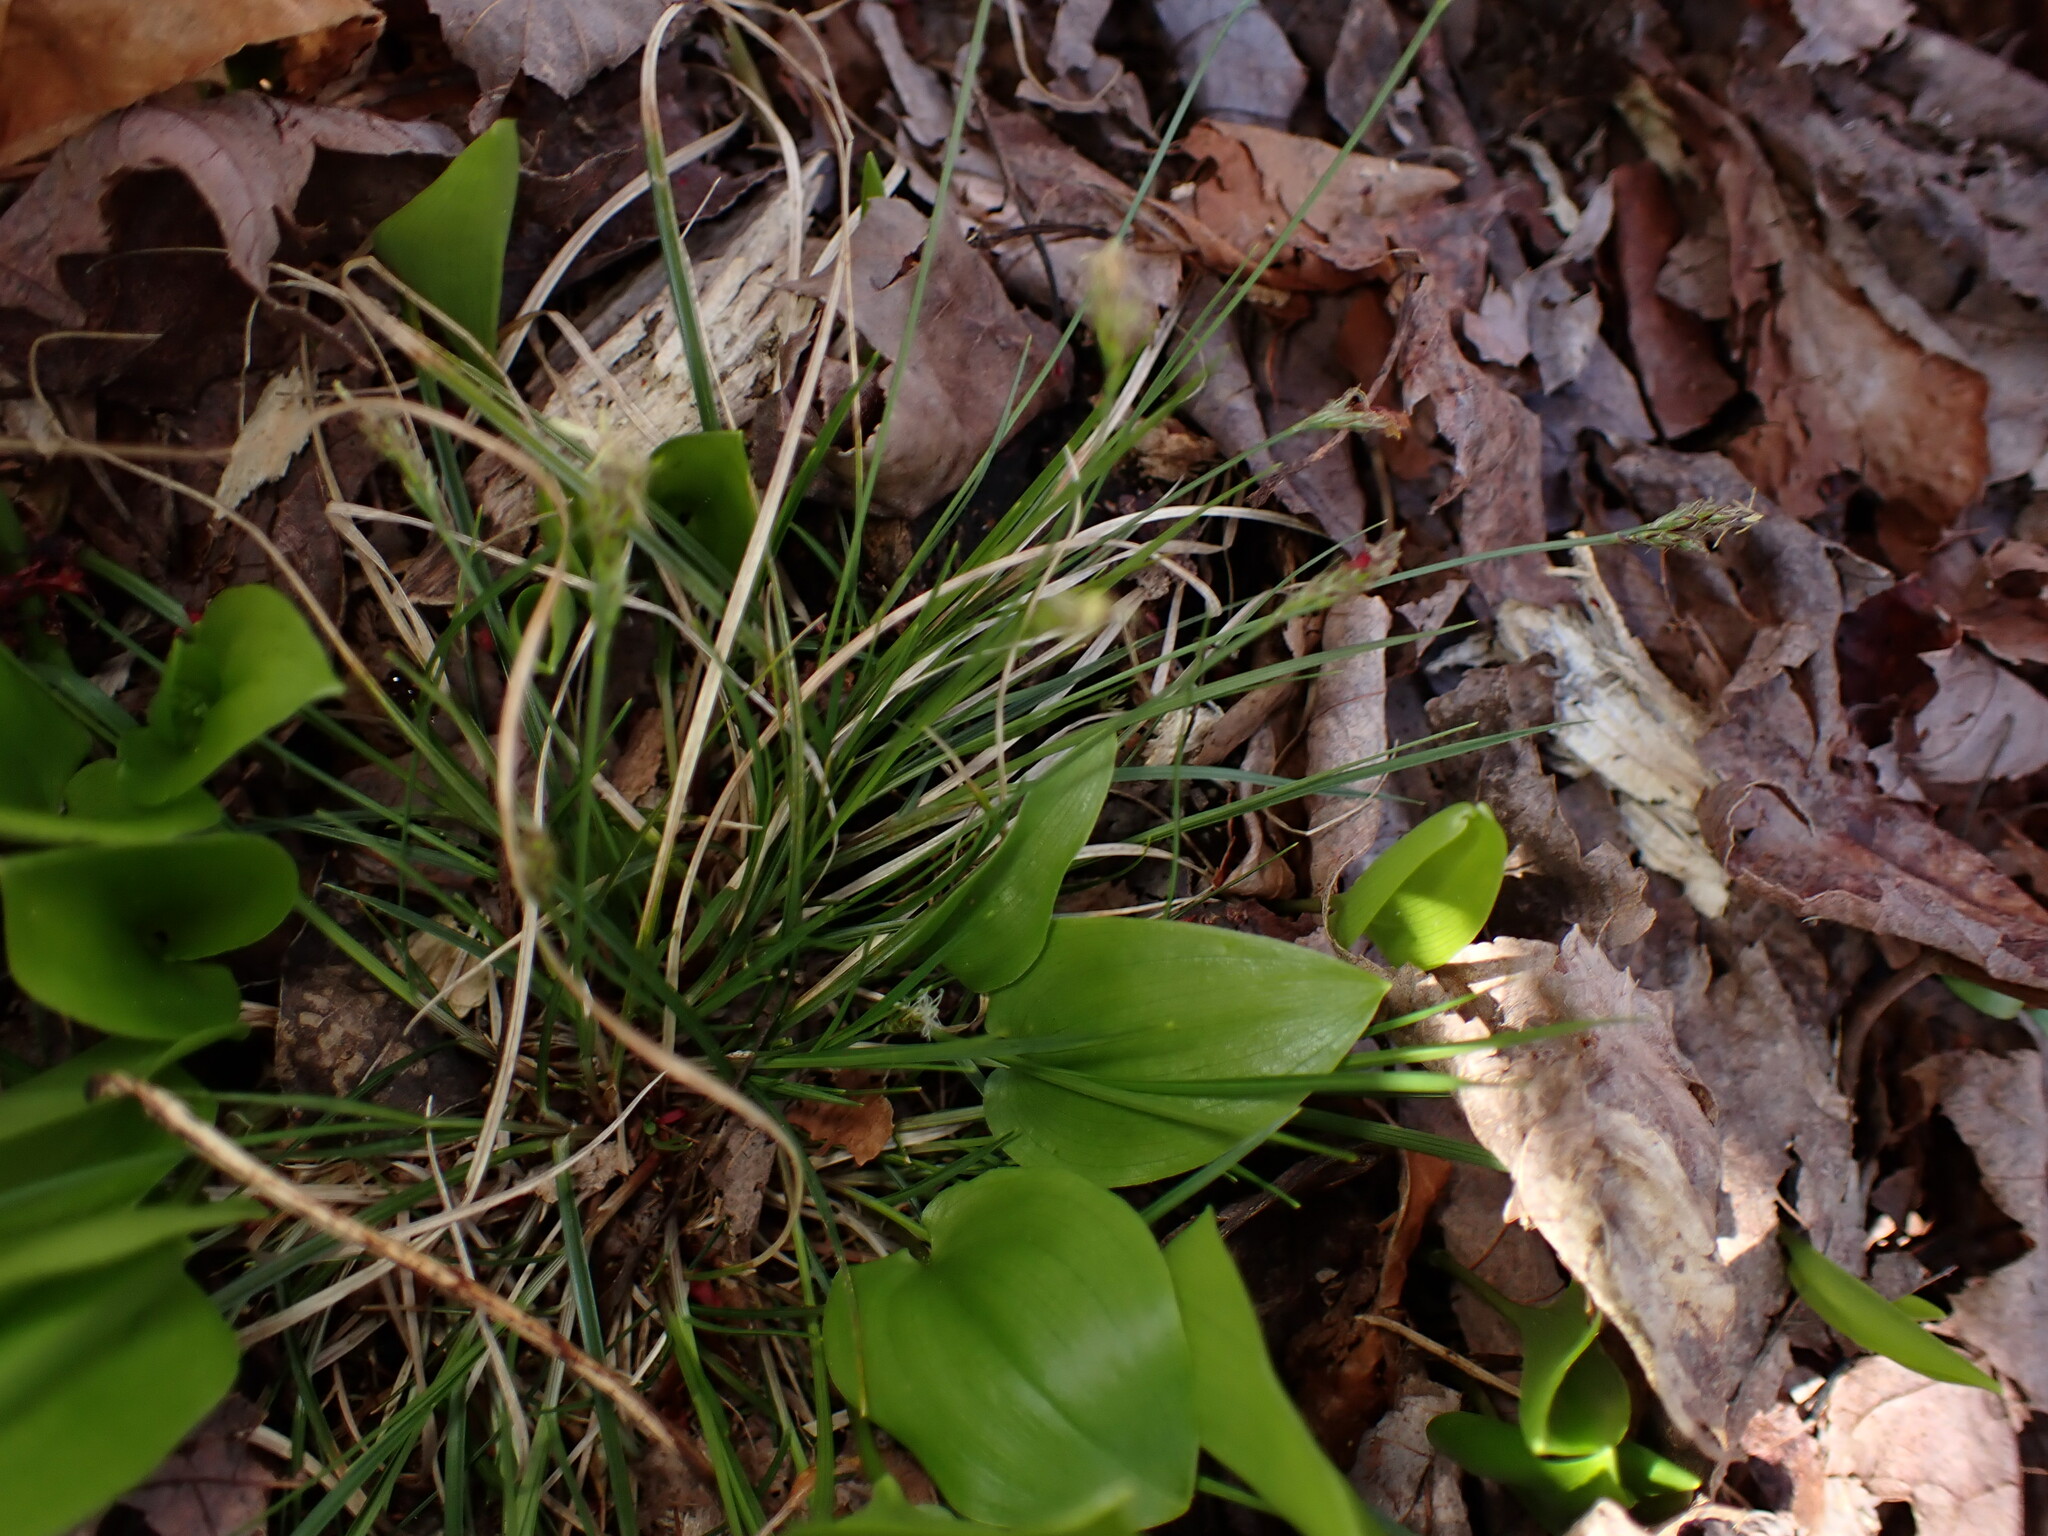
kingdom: Plantae
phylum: Tracheophyta
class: Liliopsida
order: Poales
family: Cyperaceae
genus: Carex
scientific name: Carex albicans
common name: Bellow-beaked sedge
